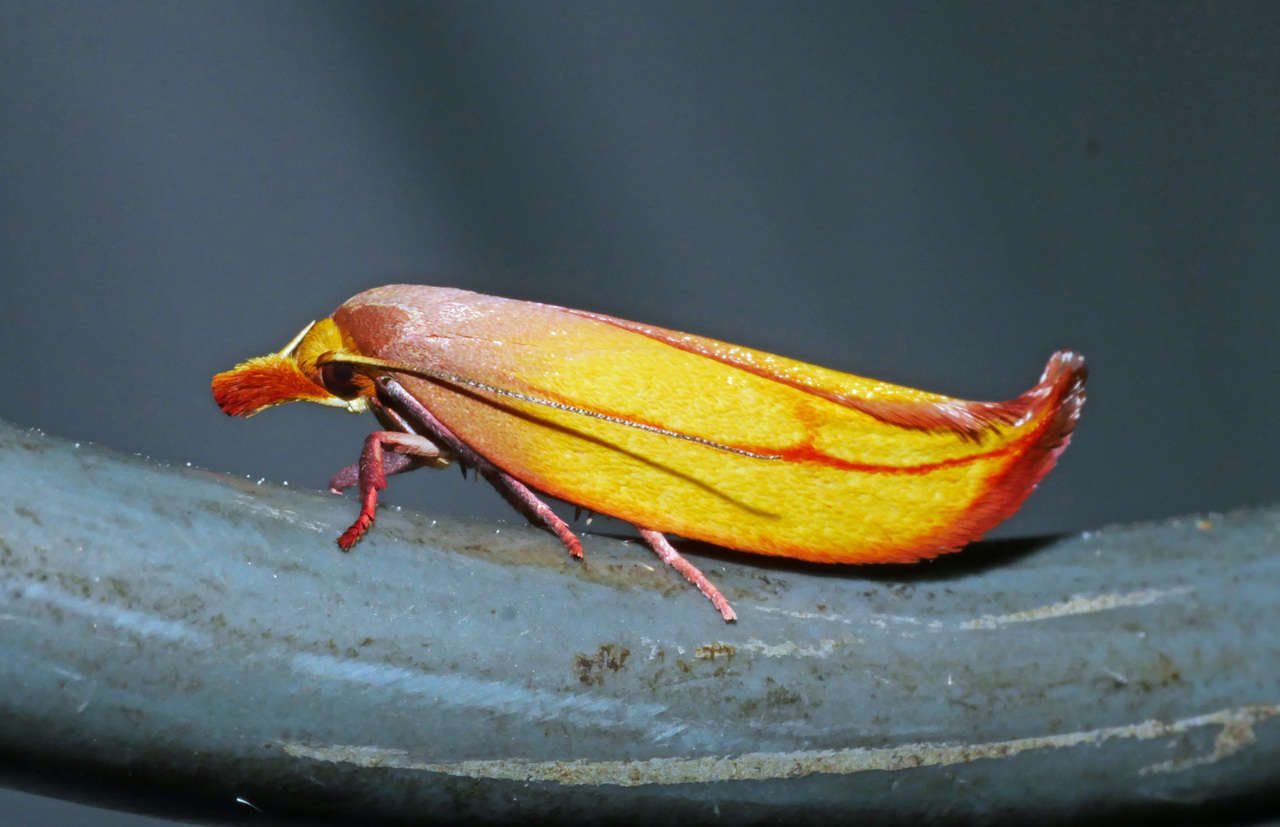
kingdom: Animalia
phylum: Arthropoda
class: Insecta
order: Lepidoptera
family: Oecophoridae
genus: Wingia
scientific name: Wingia aurata
